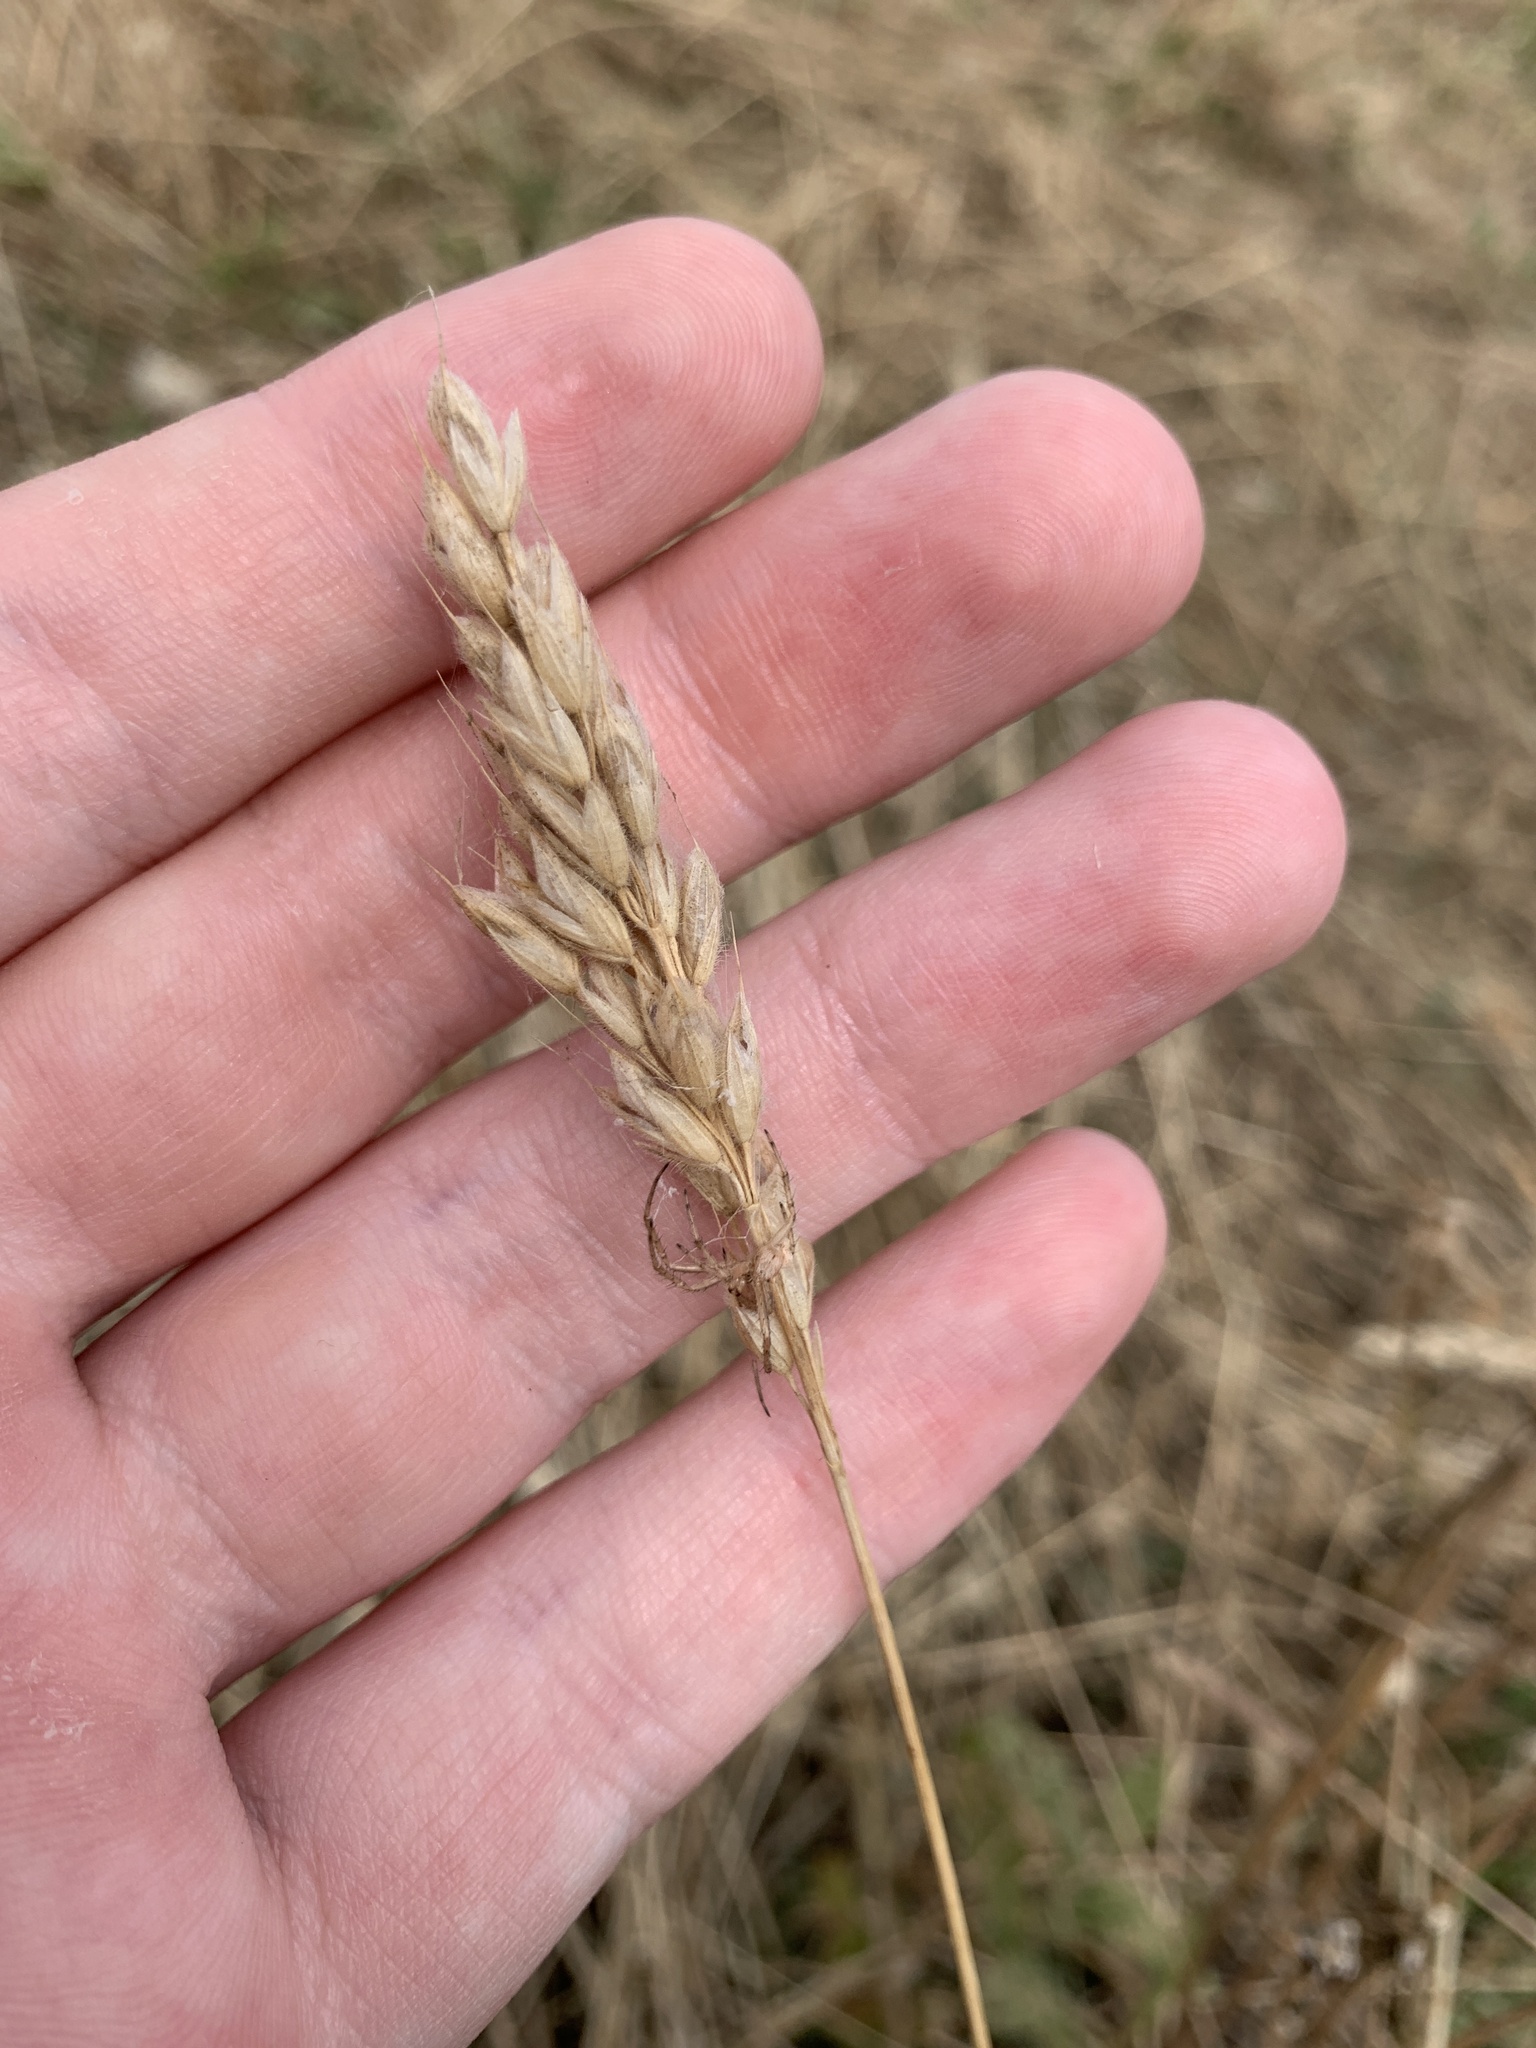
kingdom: Plantae
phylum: Tracheophyta
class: Liliopsida
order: Poales
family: Poaceae
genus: Bromus
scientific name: Bromus hordeaceus
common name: Soft brome
